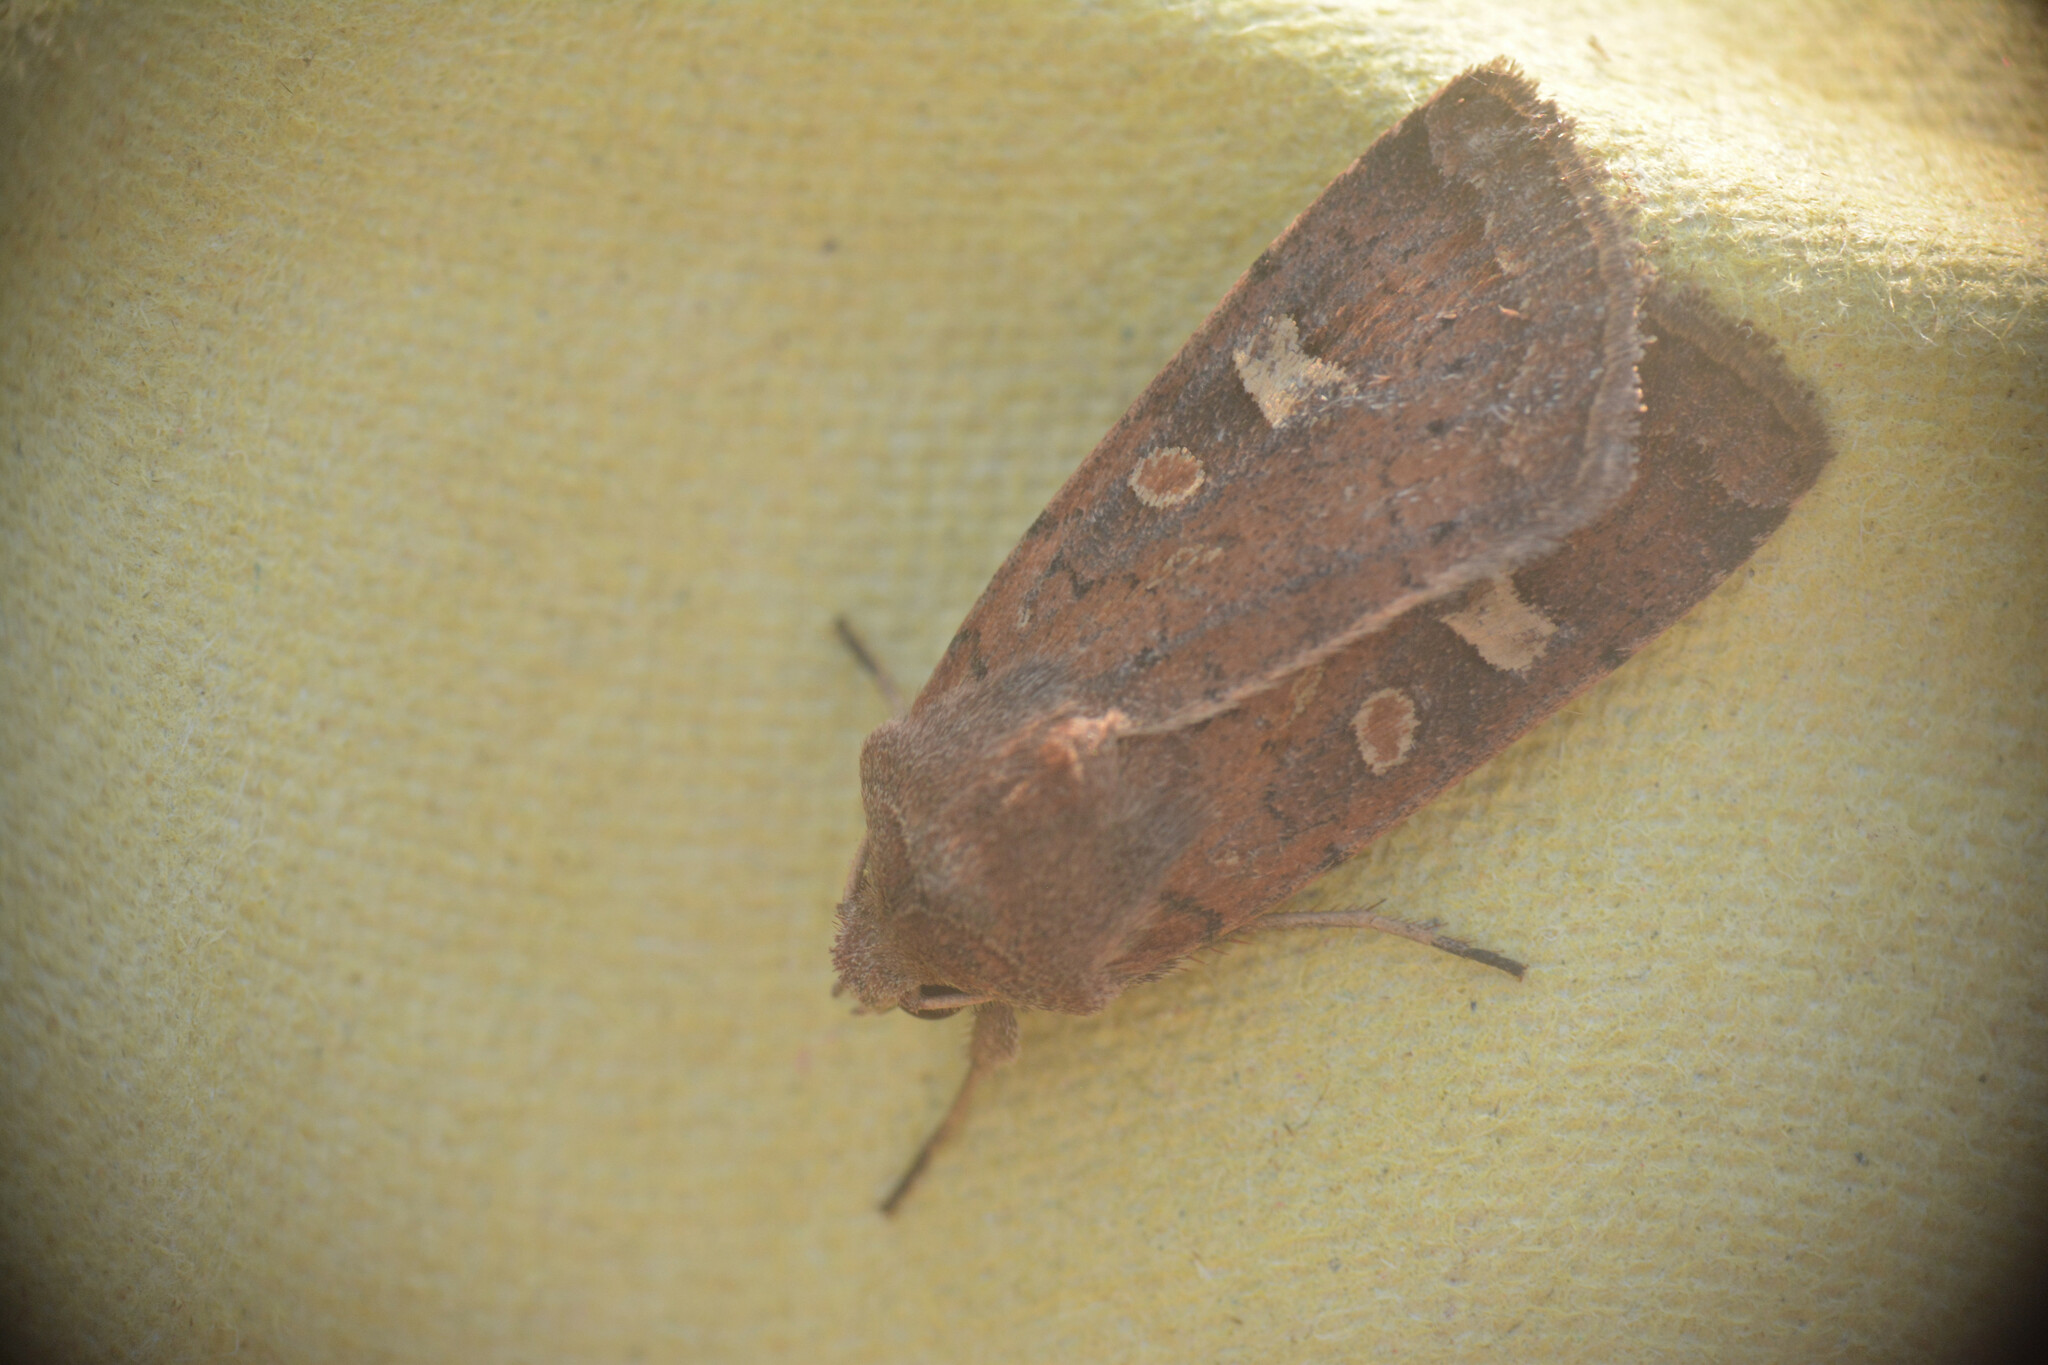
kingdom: Animalia
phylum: Arthropoda
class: Insecta
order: Lepidoptera
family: Noctuidae
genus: Xestia
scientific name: Xestia xanthographa
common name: Square-spot rustic
